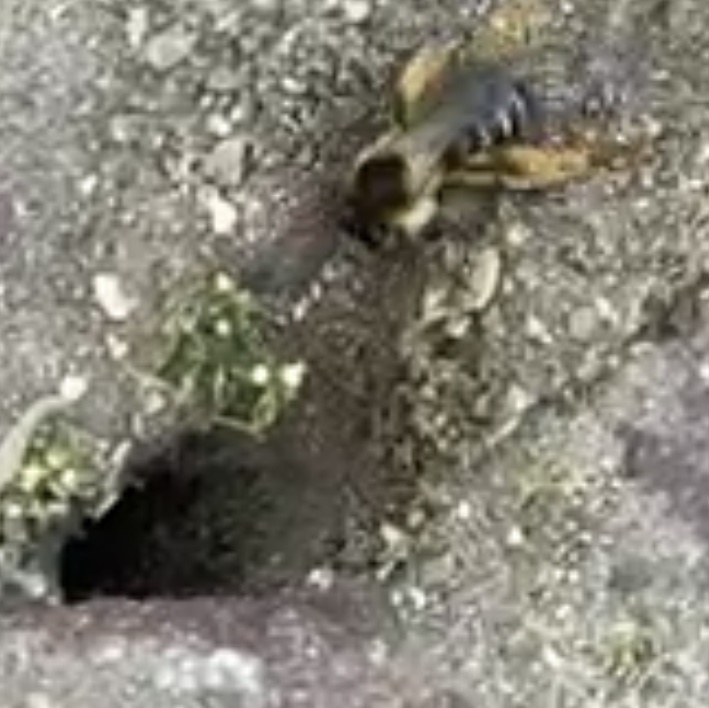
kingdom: Animalia
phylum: Arthropoda
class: Insecta
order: Hymenoptera
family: Melittidae
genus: Dasypoda
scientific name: Dasypoda hirtipes
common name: Pantaloon bee
